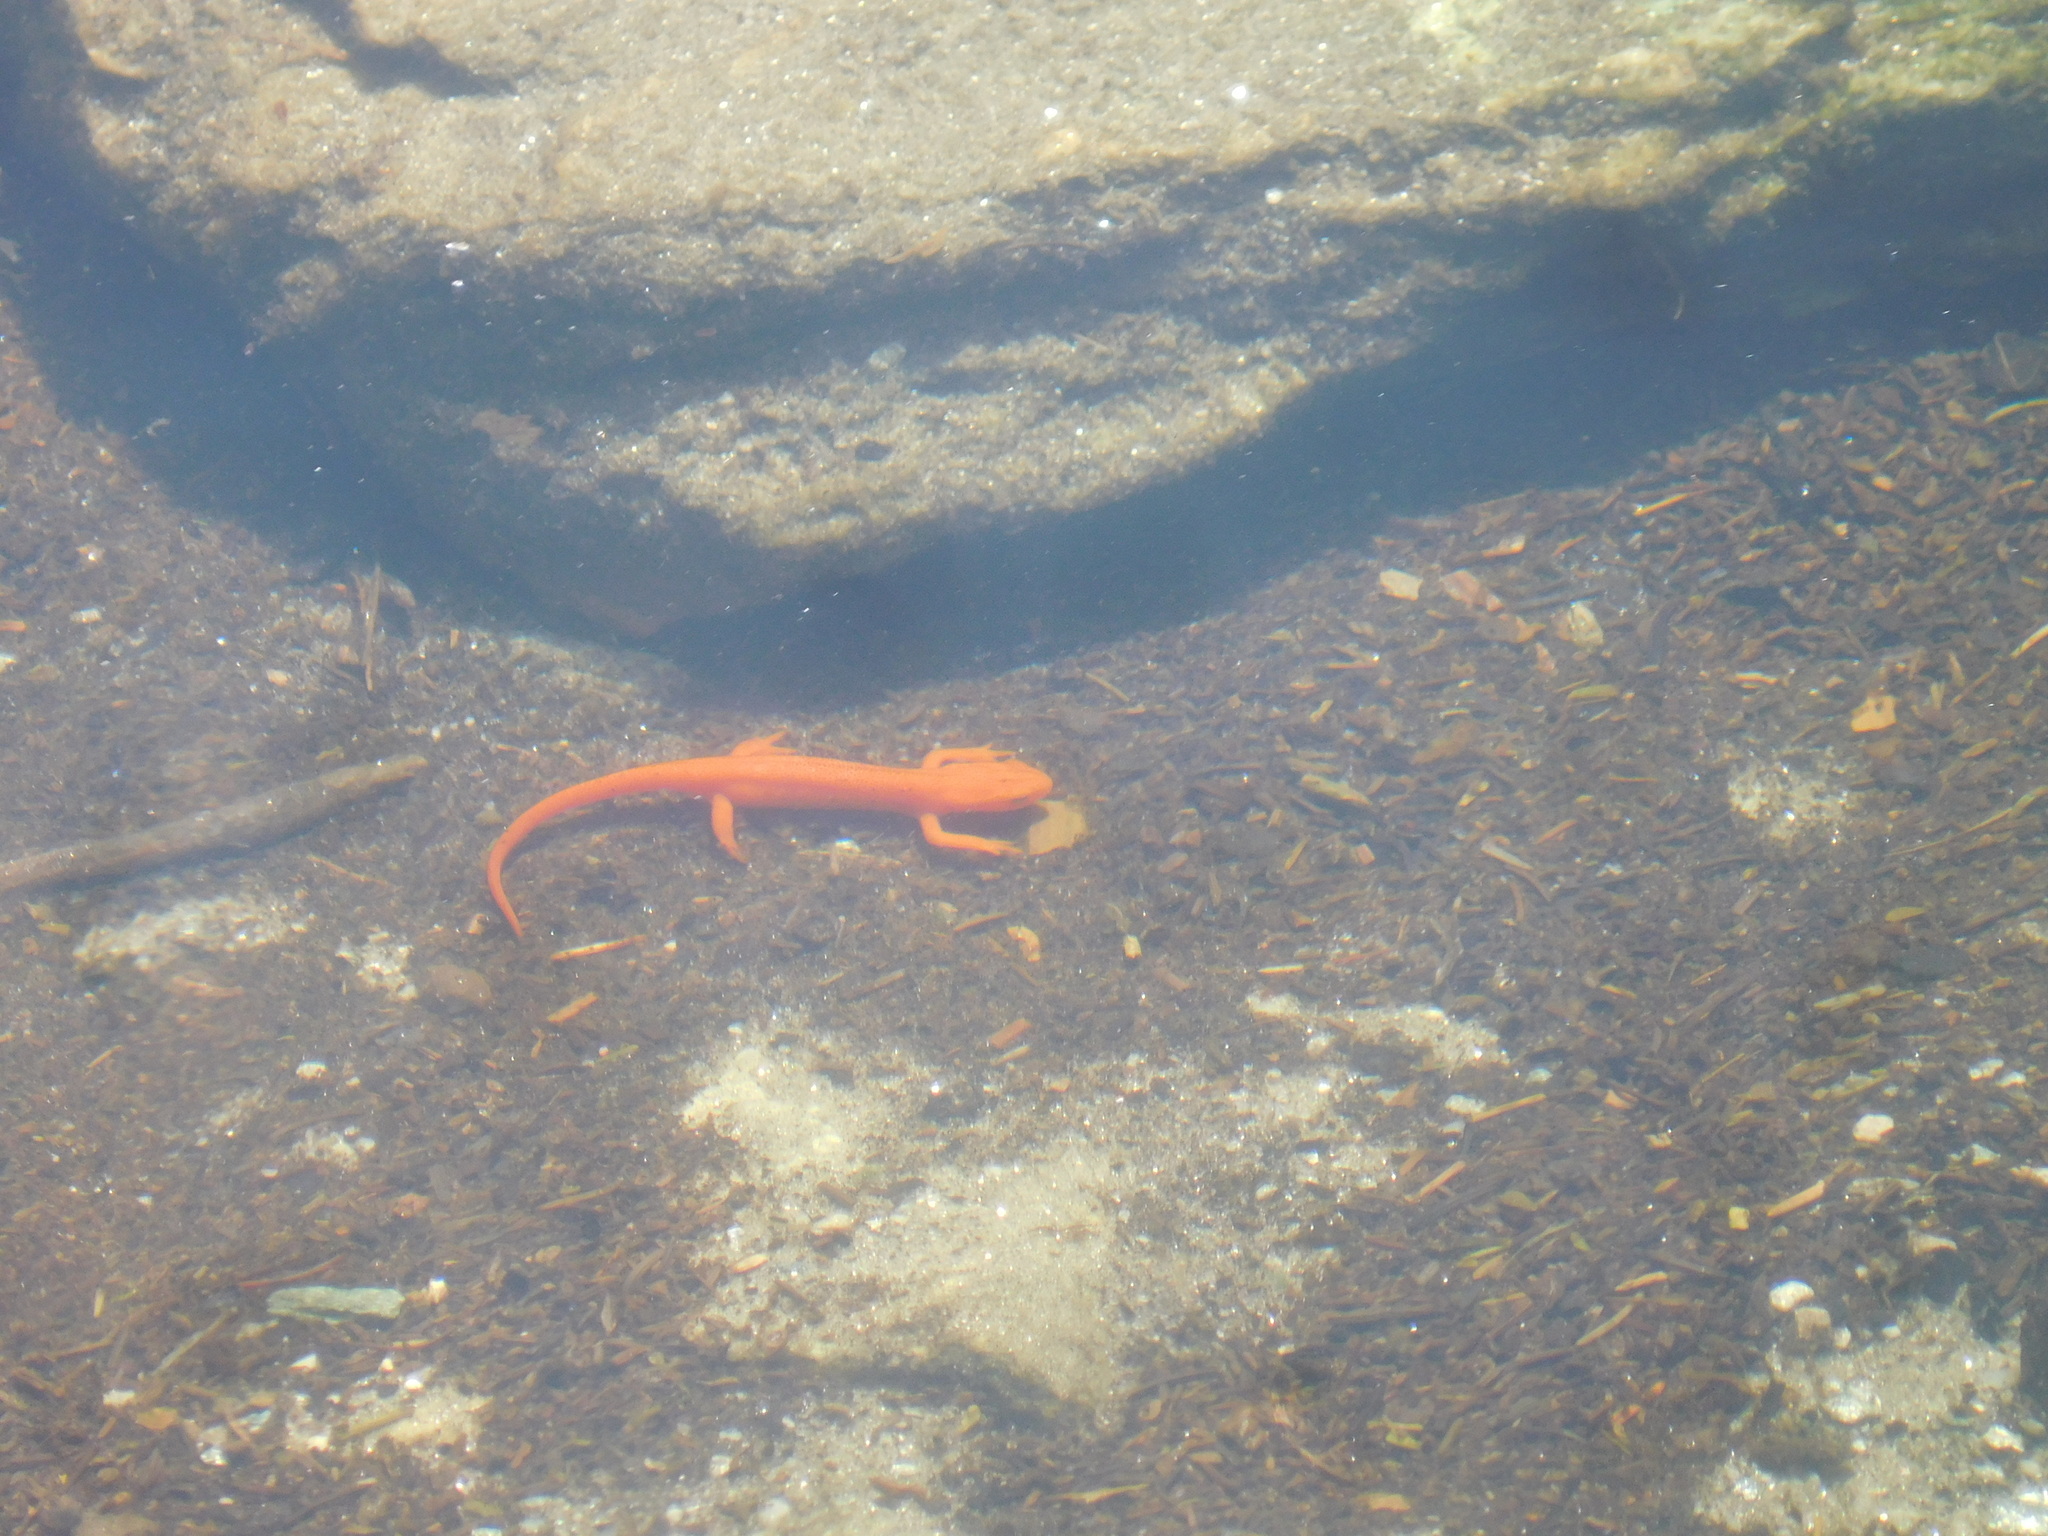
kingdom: Animalia
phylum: Chordata
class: Amphibia
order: Caudata
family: Salamandridae
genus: Notophthalmus
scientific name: Notophthalmus viridescens
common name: Eastern newt
